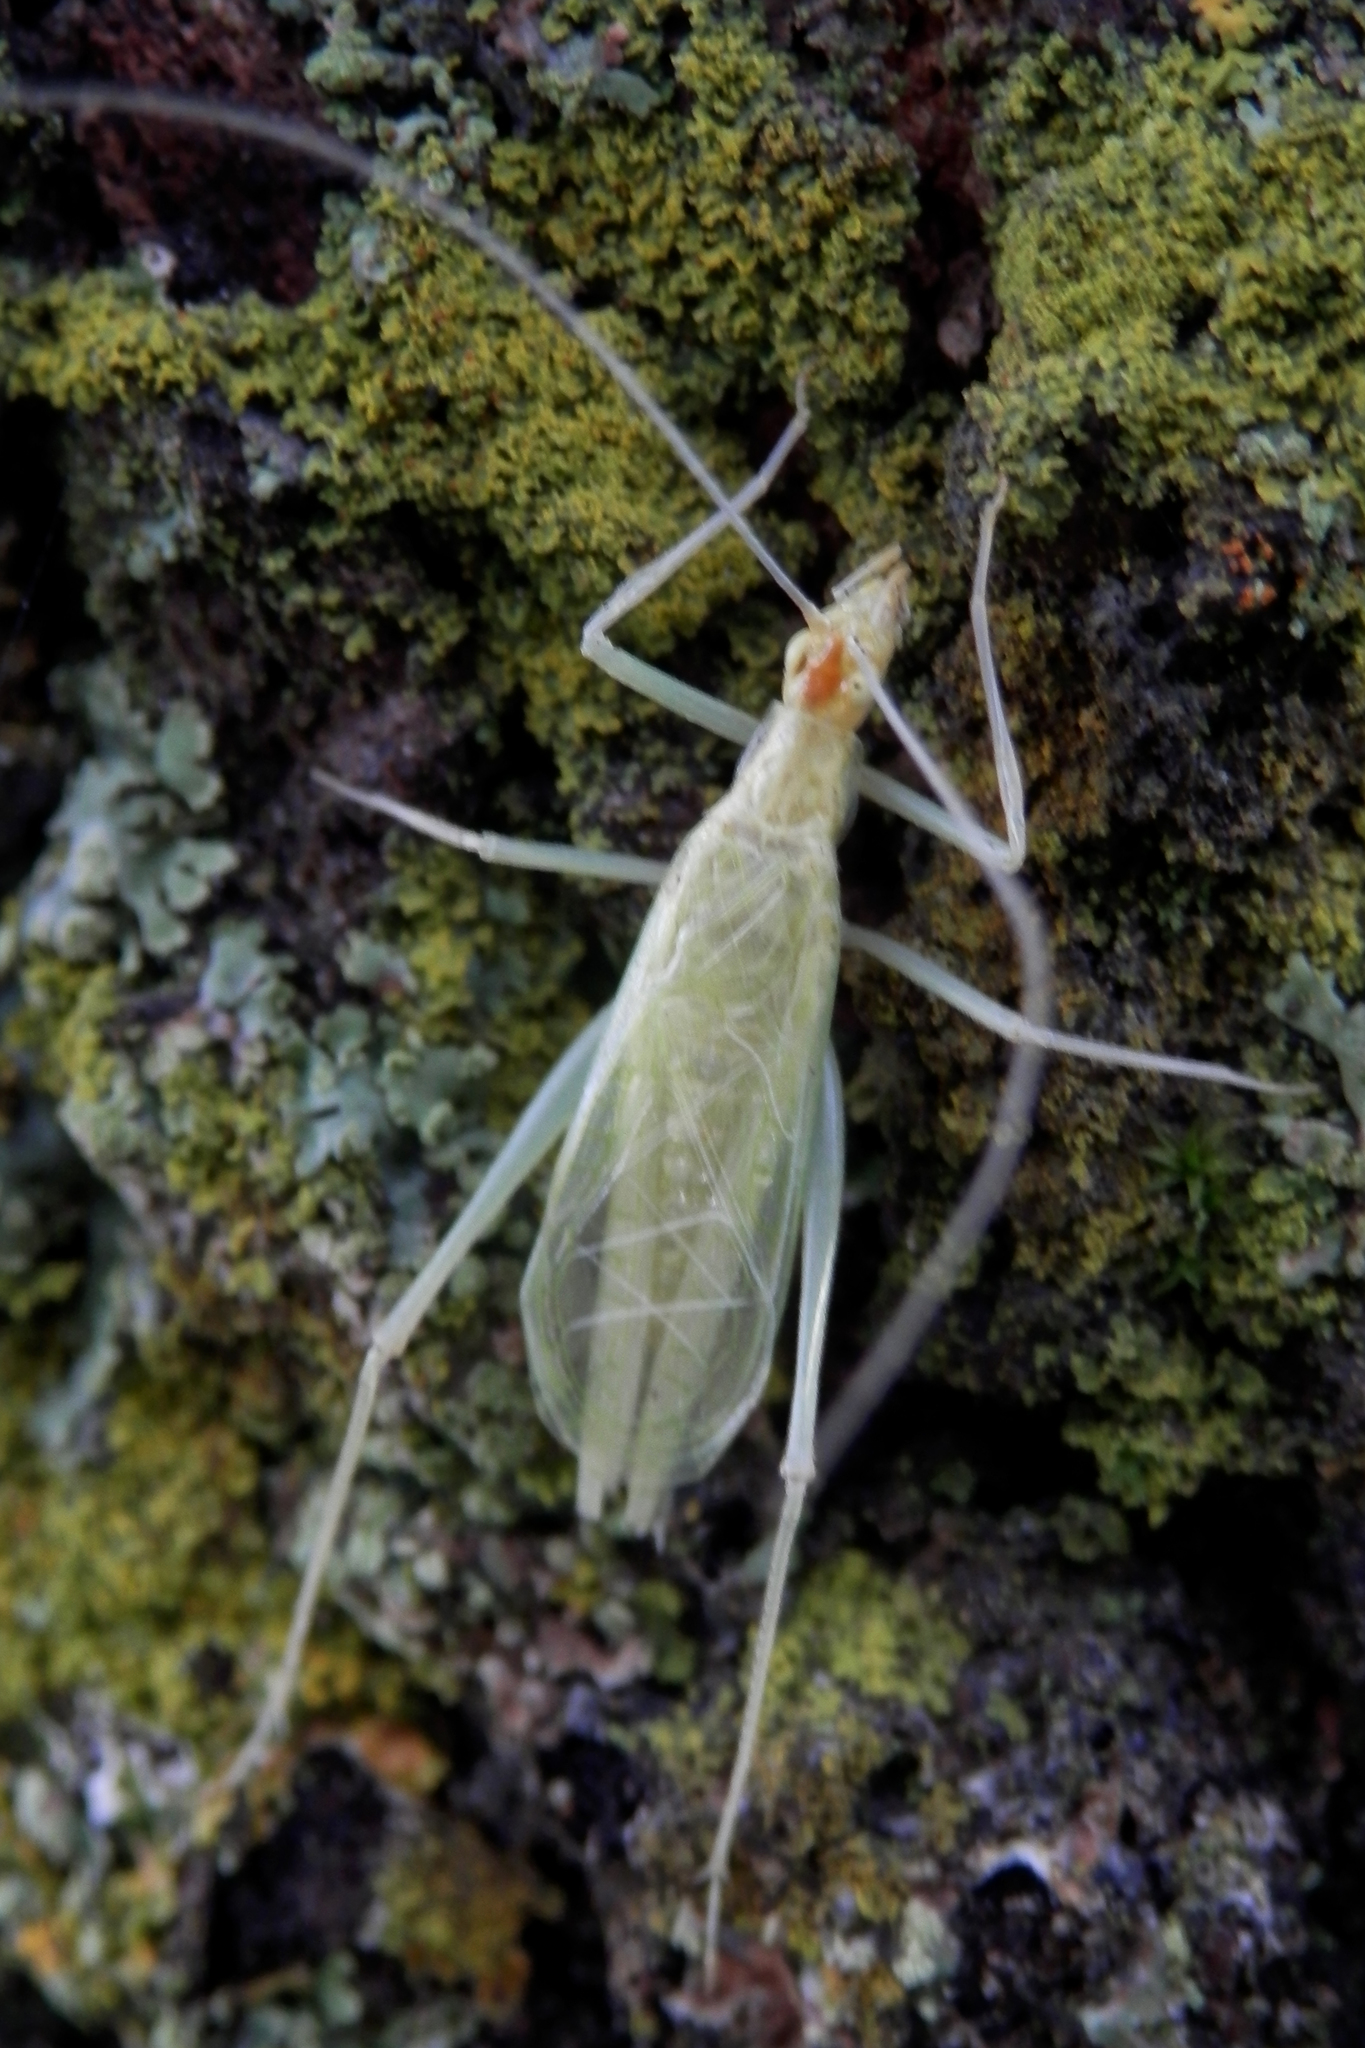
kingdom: Animalia
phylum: Arthropoda
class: Insecta
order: Orthoptera
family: Gryllidae
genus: Oecanthus
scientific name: Oecanthus niveus
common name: Narrow-winged tree cricket
